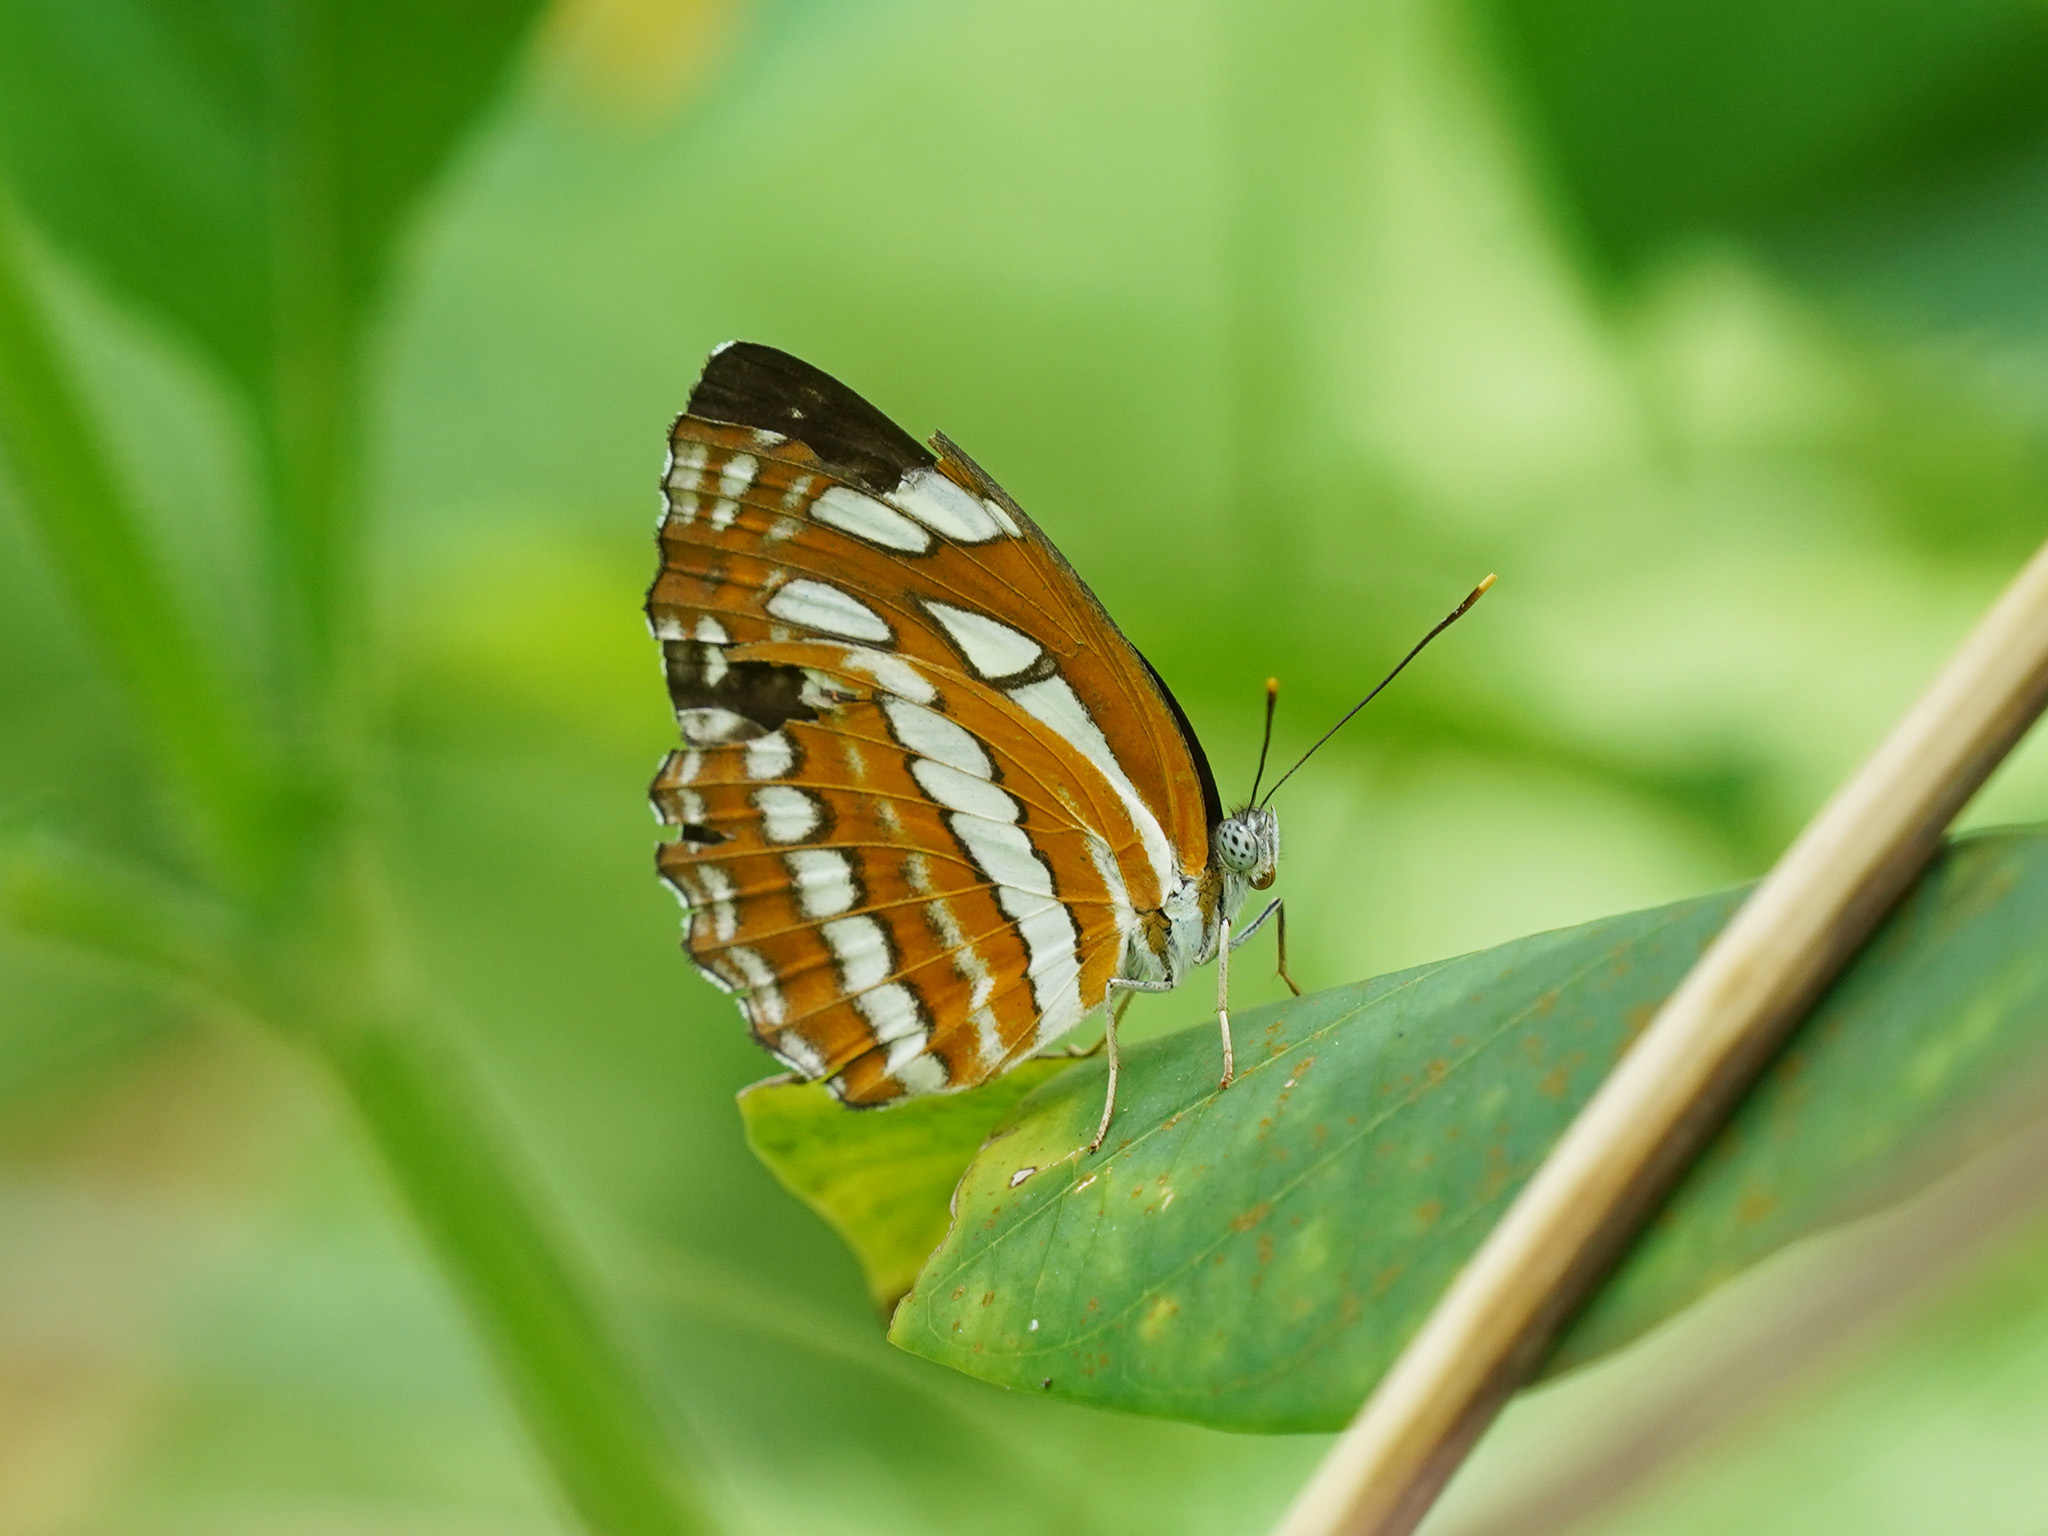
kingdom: Animalia
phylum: Arthropoda
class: Insecta
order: Lepidoptera
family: Nymphalidae
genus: Neptis
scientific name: Neptis hylas
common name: Common sailer
